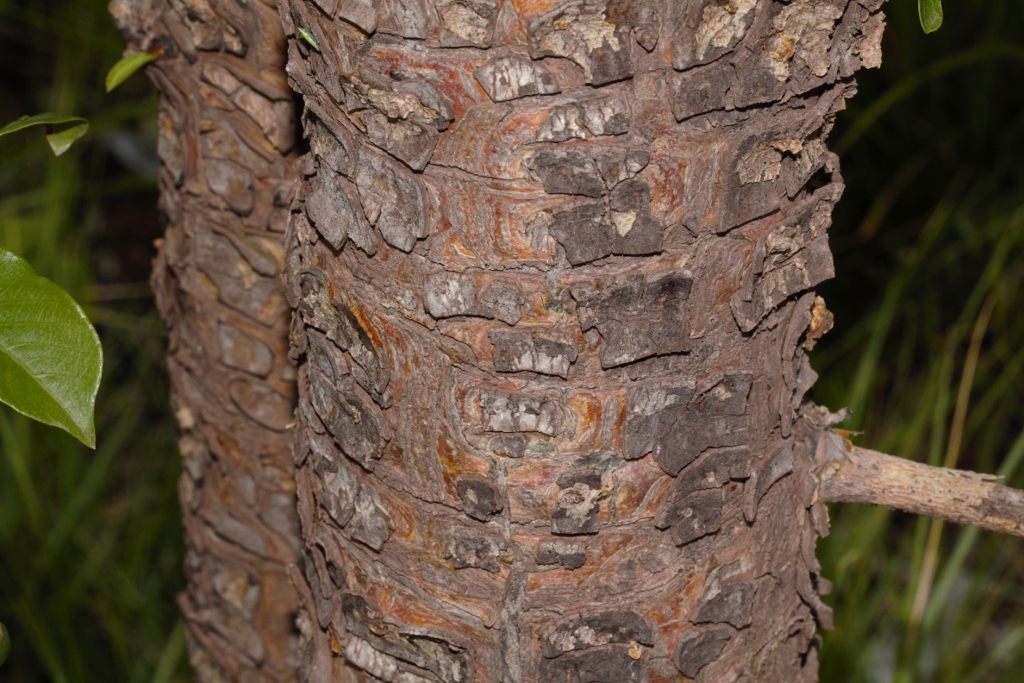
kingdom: Plantae
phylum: Tracheophyta
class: Magnoliopsida
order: Malvales
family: Malvaceae
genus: Adansonia
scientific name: Adansonia digitata
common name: Dead-rat-tree
